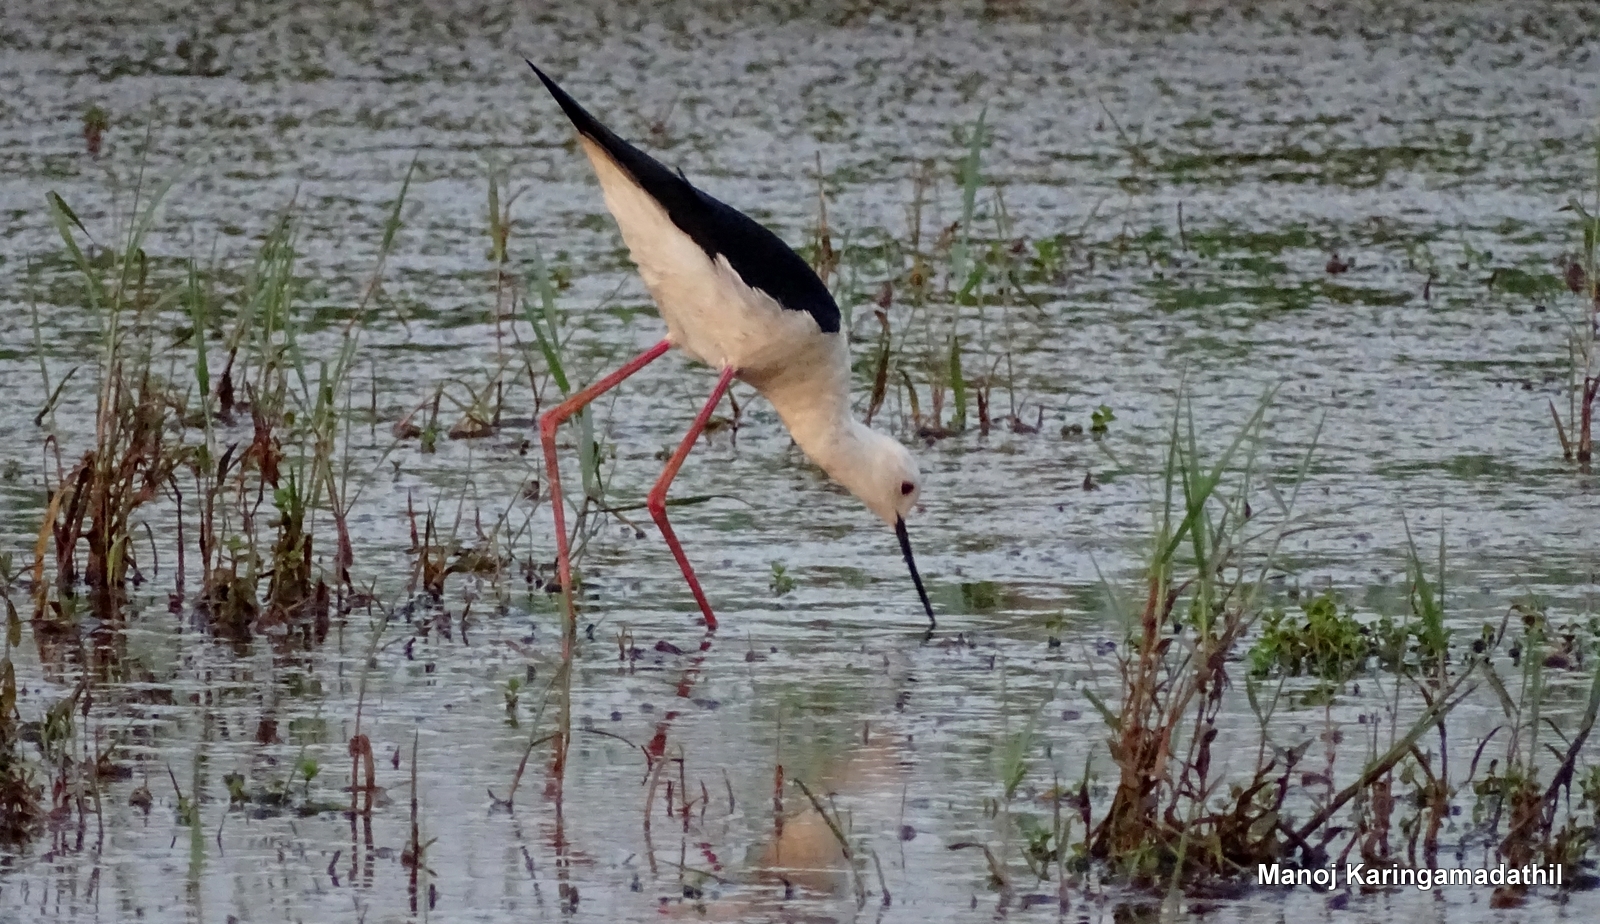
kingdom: Animalia
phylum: Chordata
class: Aves
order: Charadriiformes
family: Recurvirostridae
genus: Himantopus
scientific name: Himantopus himantopus
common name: Black-winged stilt
